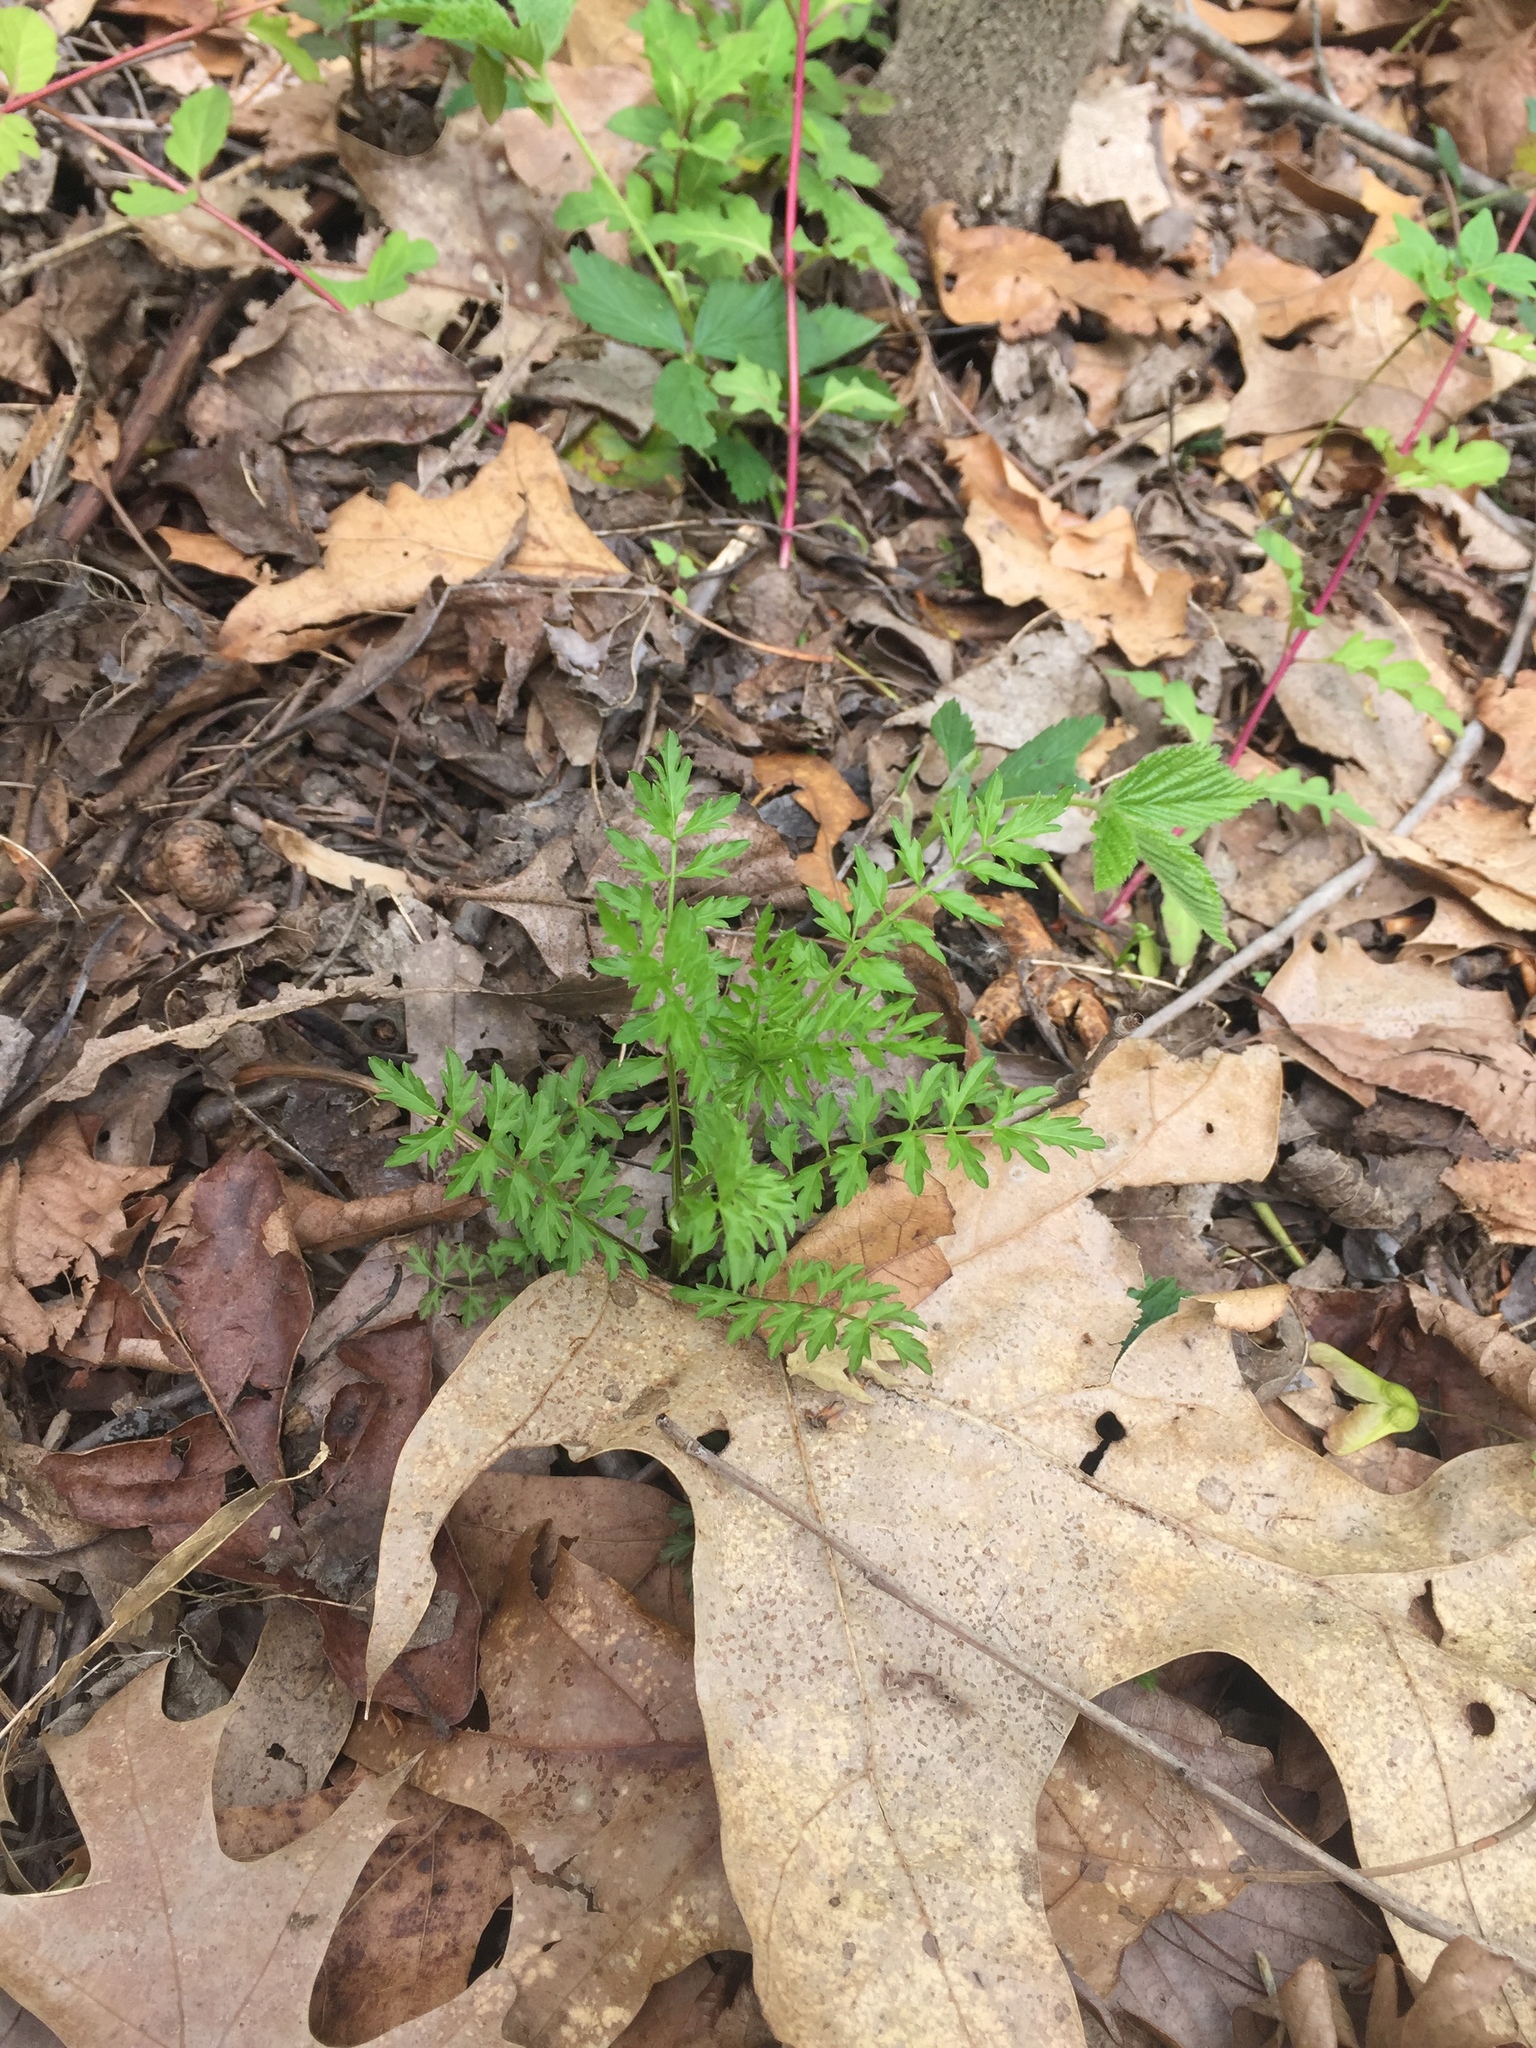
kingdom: Plantae
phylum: Tracheophyta
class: Magnoliopsida
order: Brassicales
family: Brassicaceae
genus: Cardamine
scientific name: Cardamine impatiens
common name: Narrow-leaved bitter-cress
